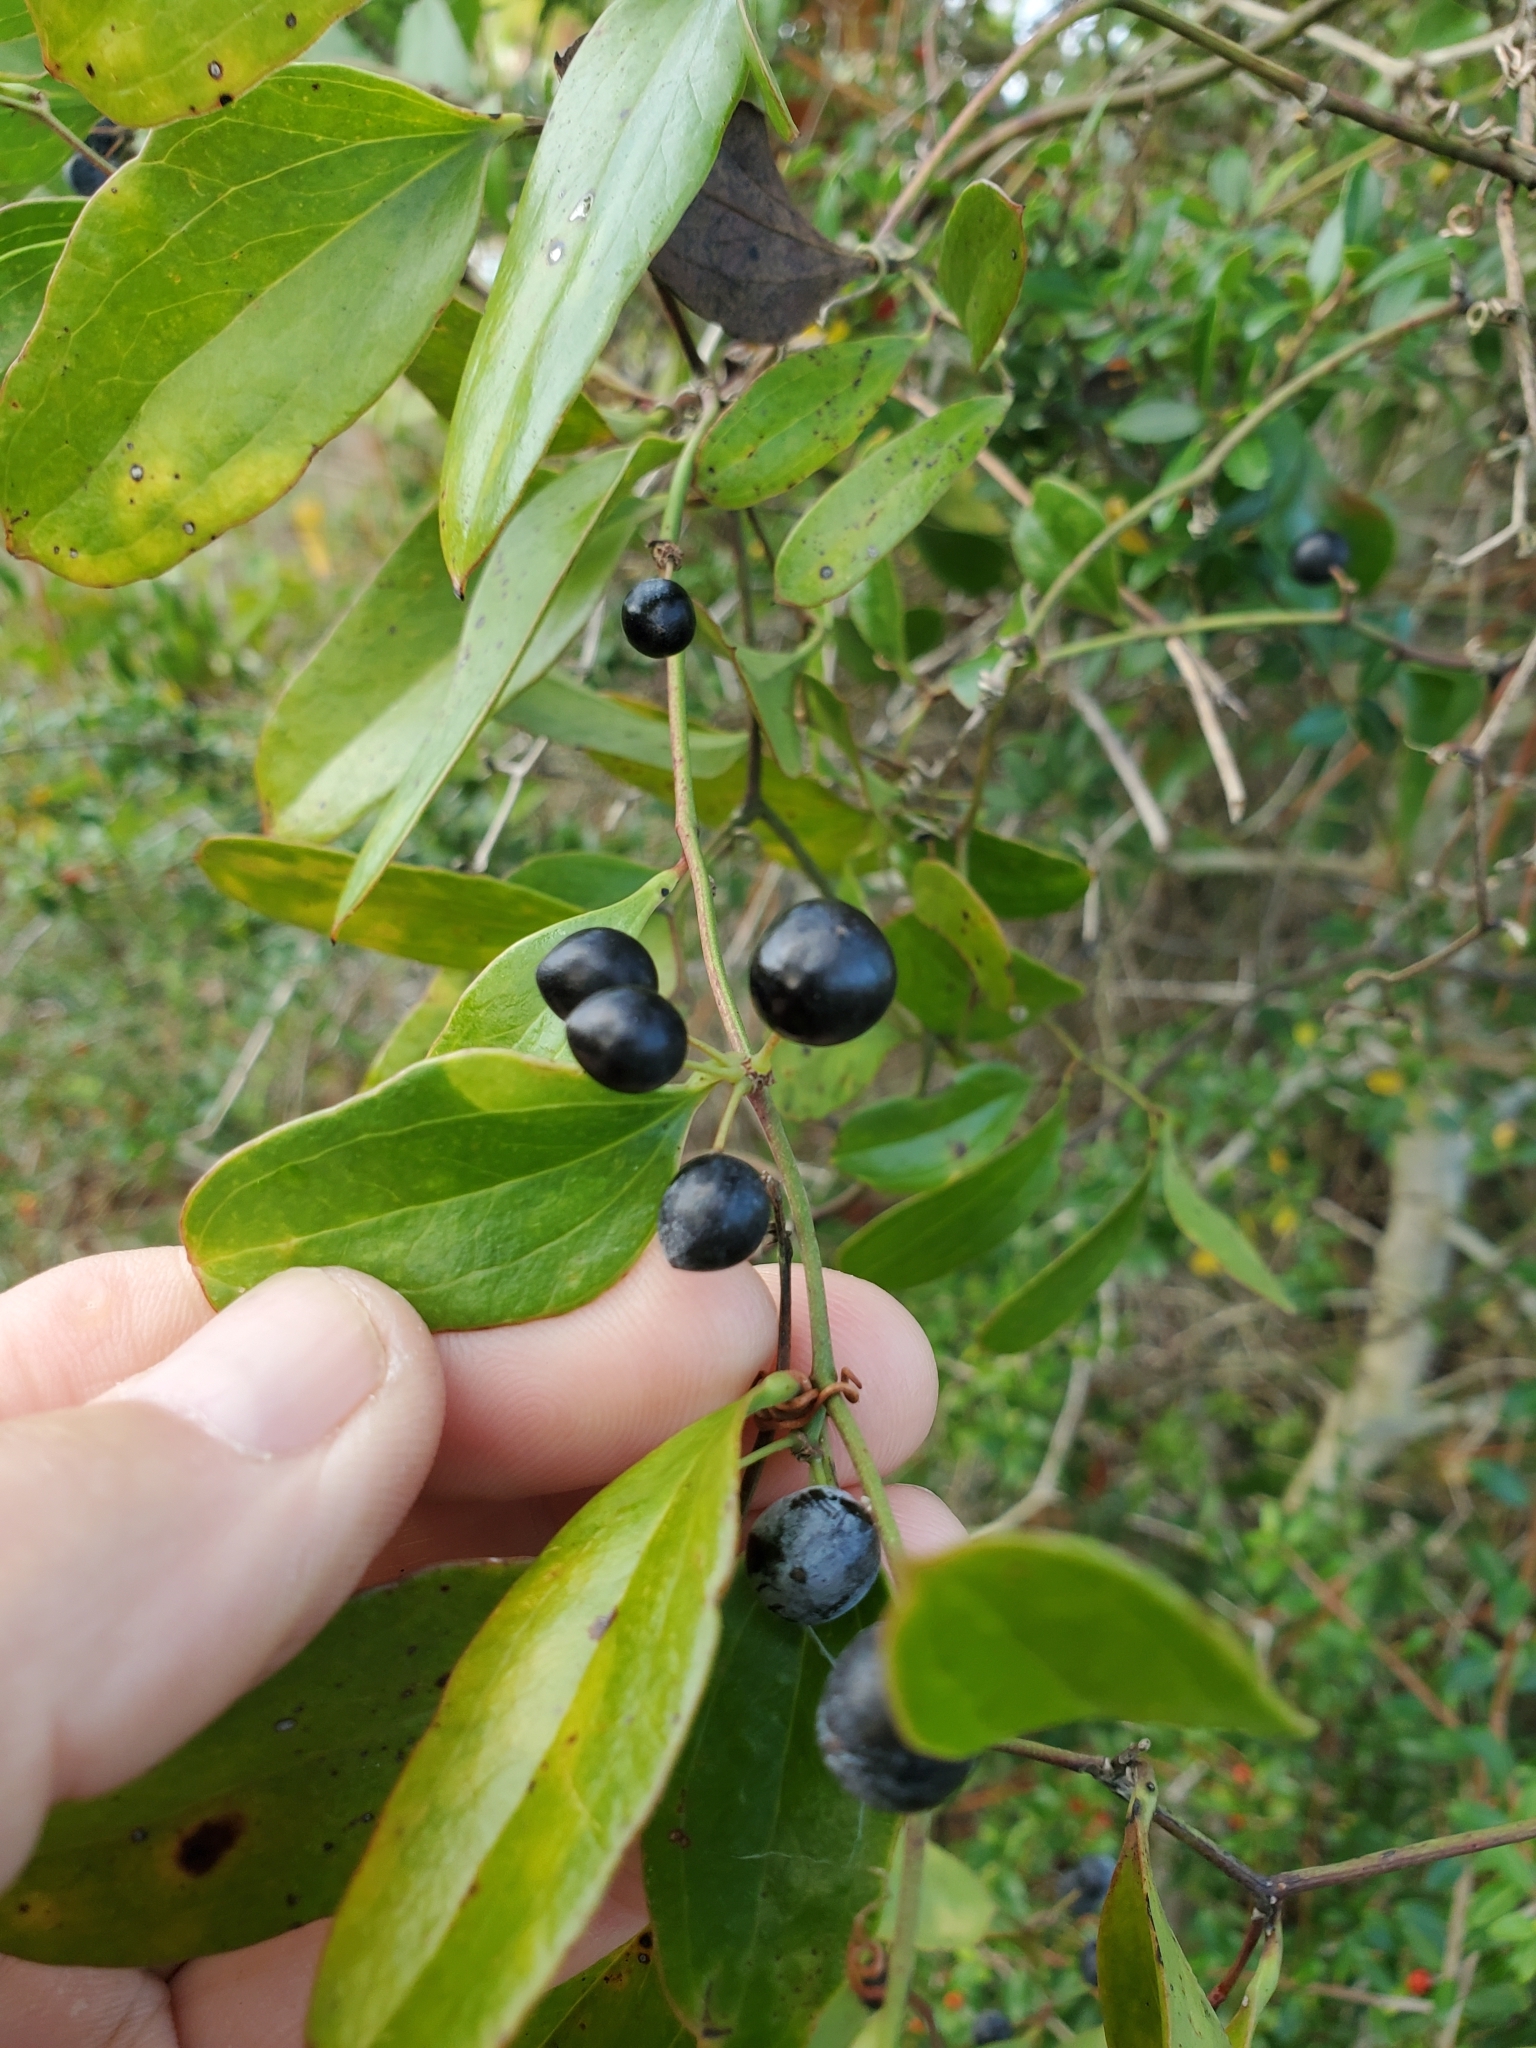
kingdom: Plantae
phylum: Tracheophyta
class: Liliopsida
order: Liliales
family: Smilacaceae
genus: Smilax
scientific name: Smilax auriculata
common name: Wild bamboo
